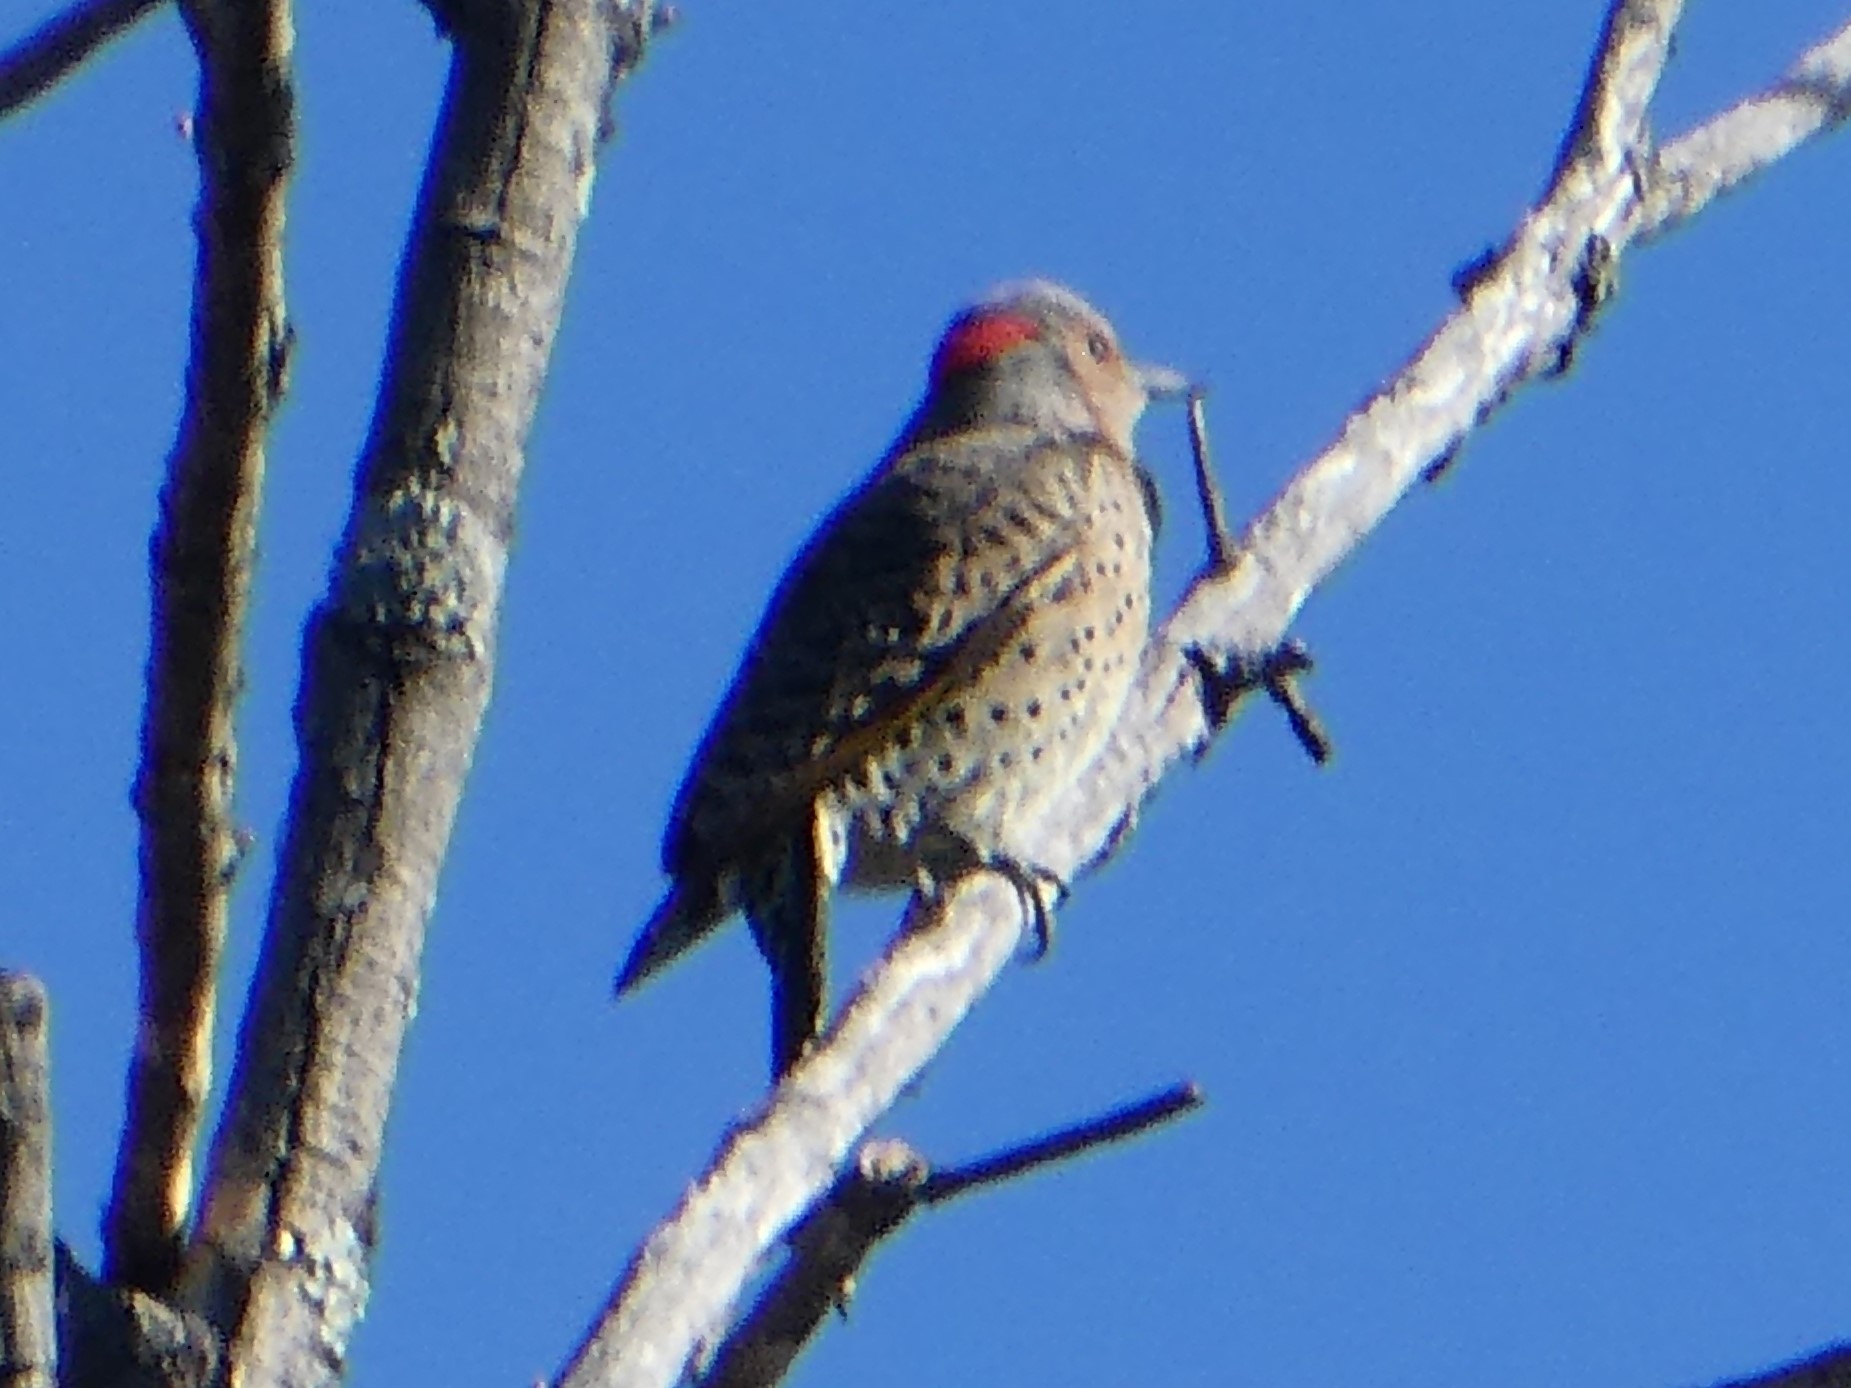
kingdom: Animalia
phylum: Chordata
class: Aves
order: Piciformes
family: Picidae
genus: Colaptes
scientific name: Colaptes auratus
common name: Northern flicker
